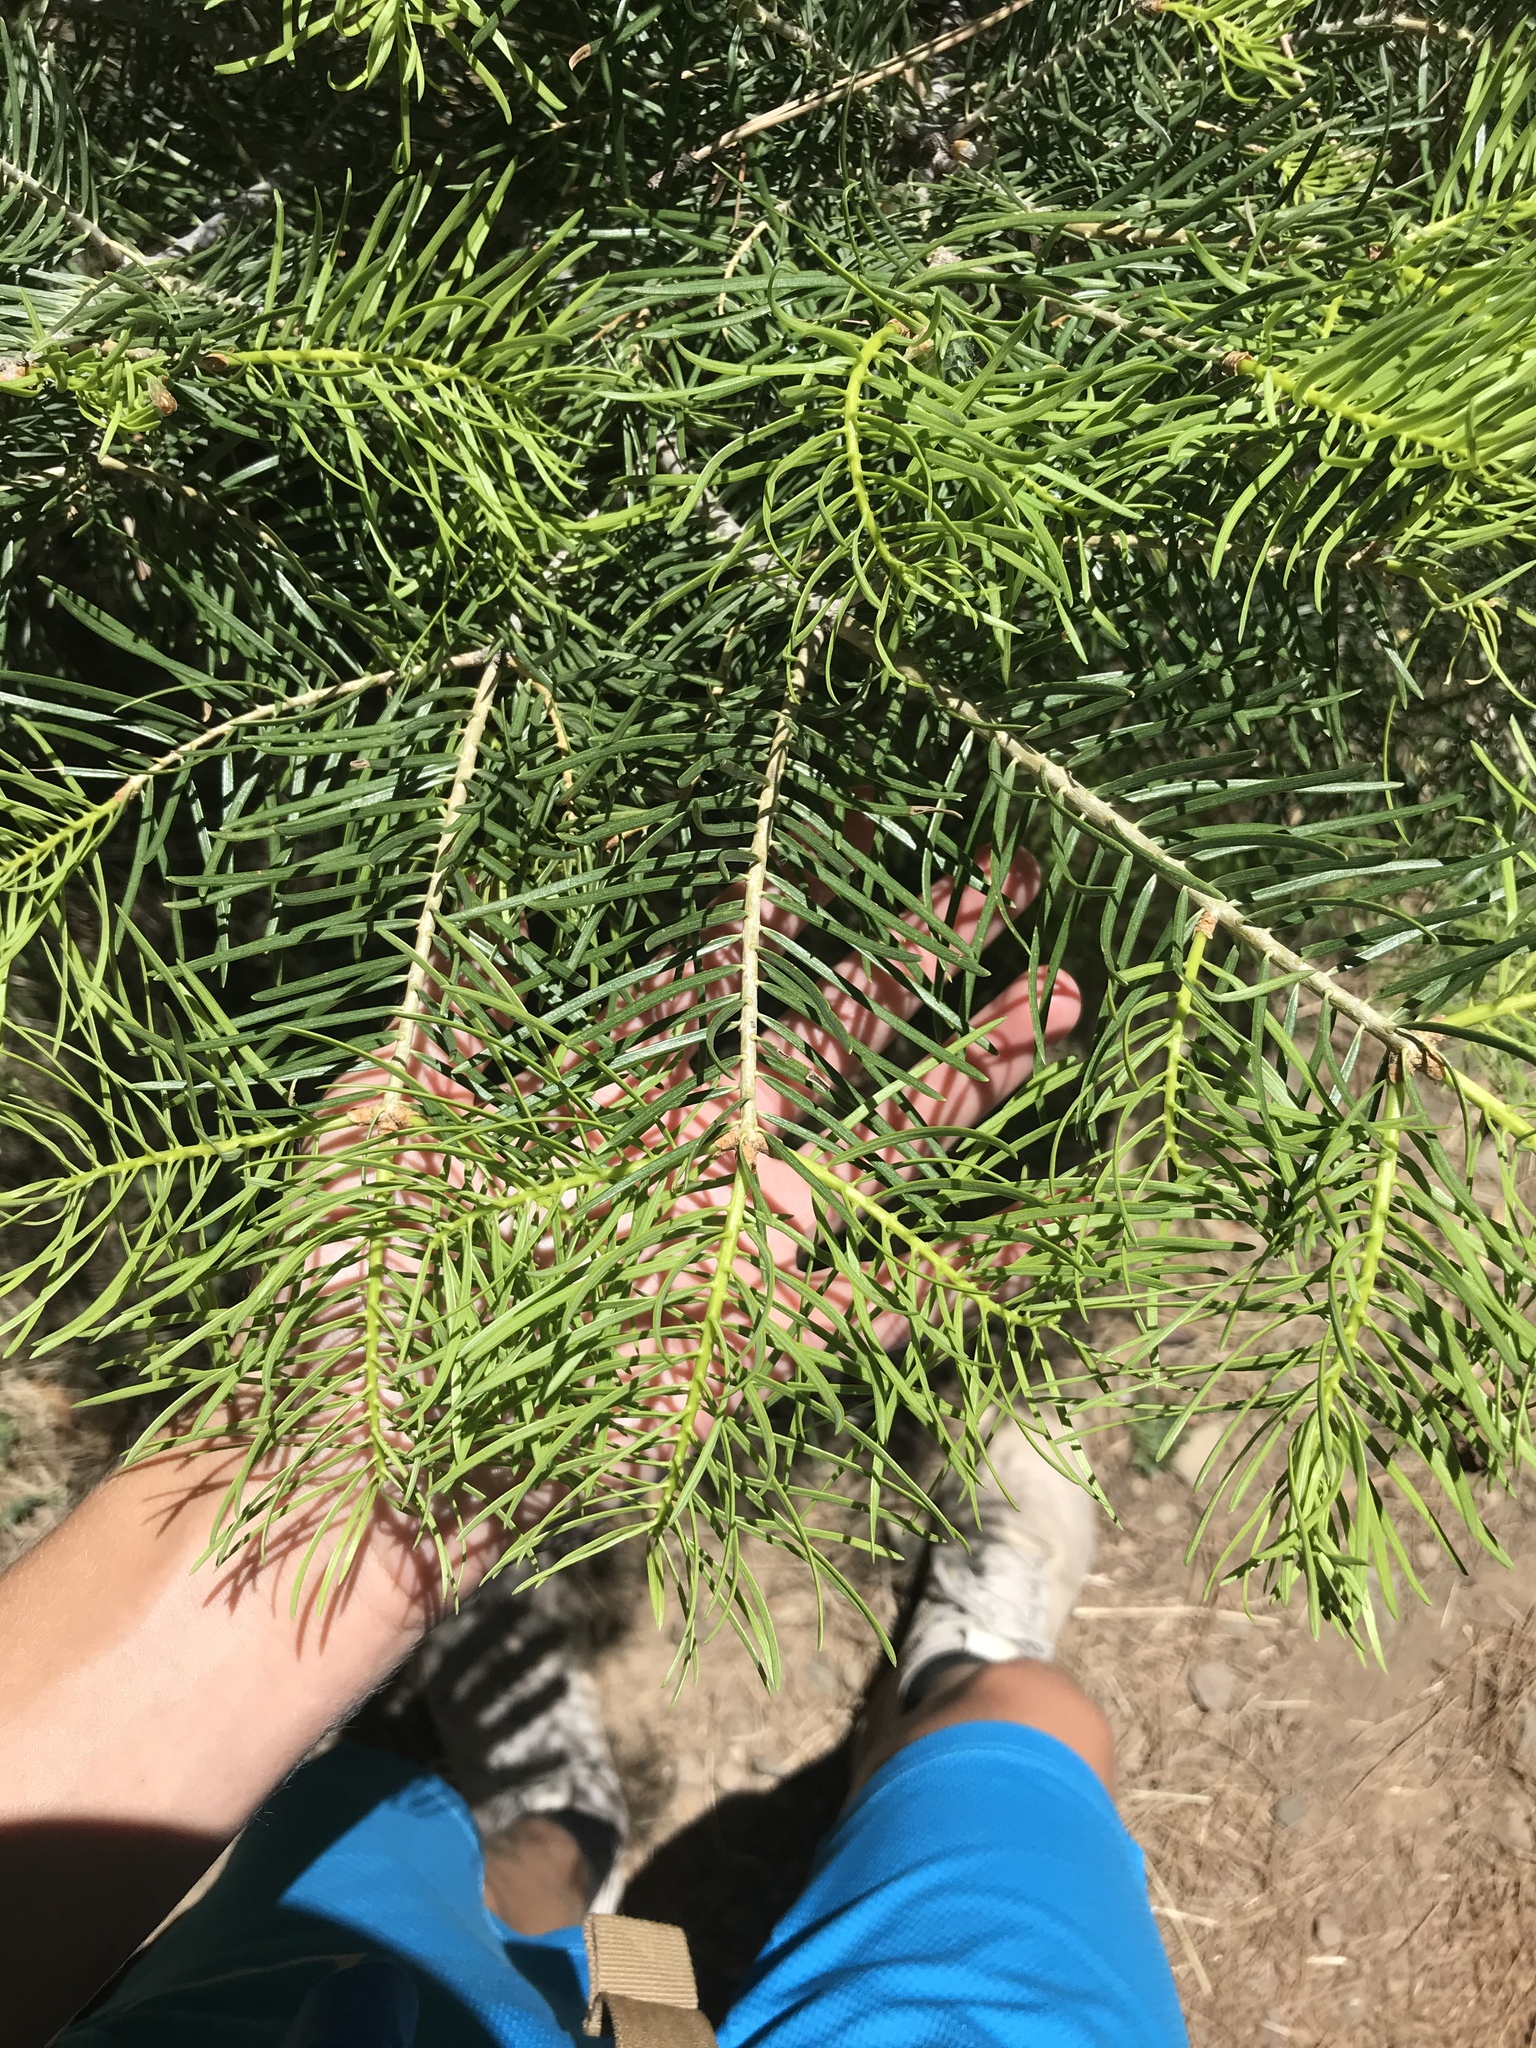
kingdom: Plantae
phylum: Tracheophyta
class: Pinopsida
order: Pinales
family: Pinaceae
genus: Abies
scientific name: Abies concolor
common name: Colorado fir
